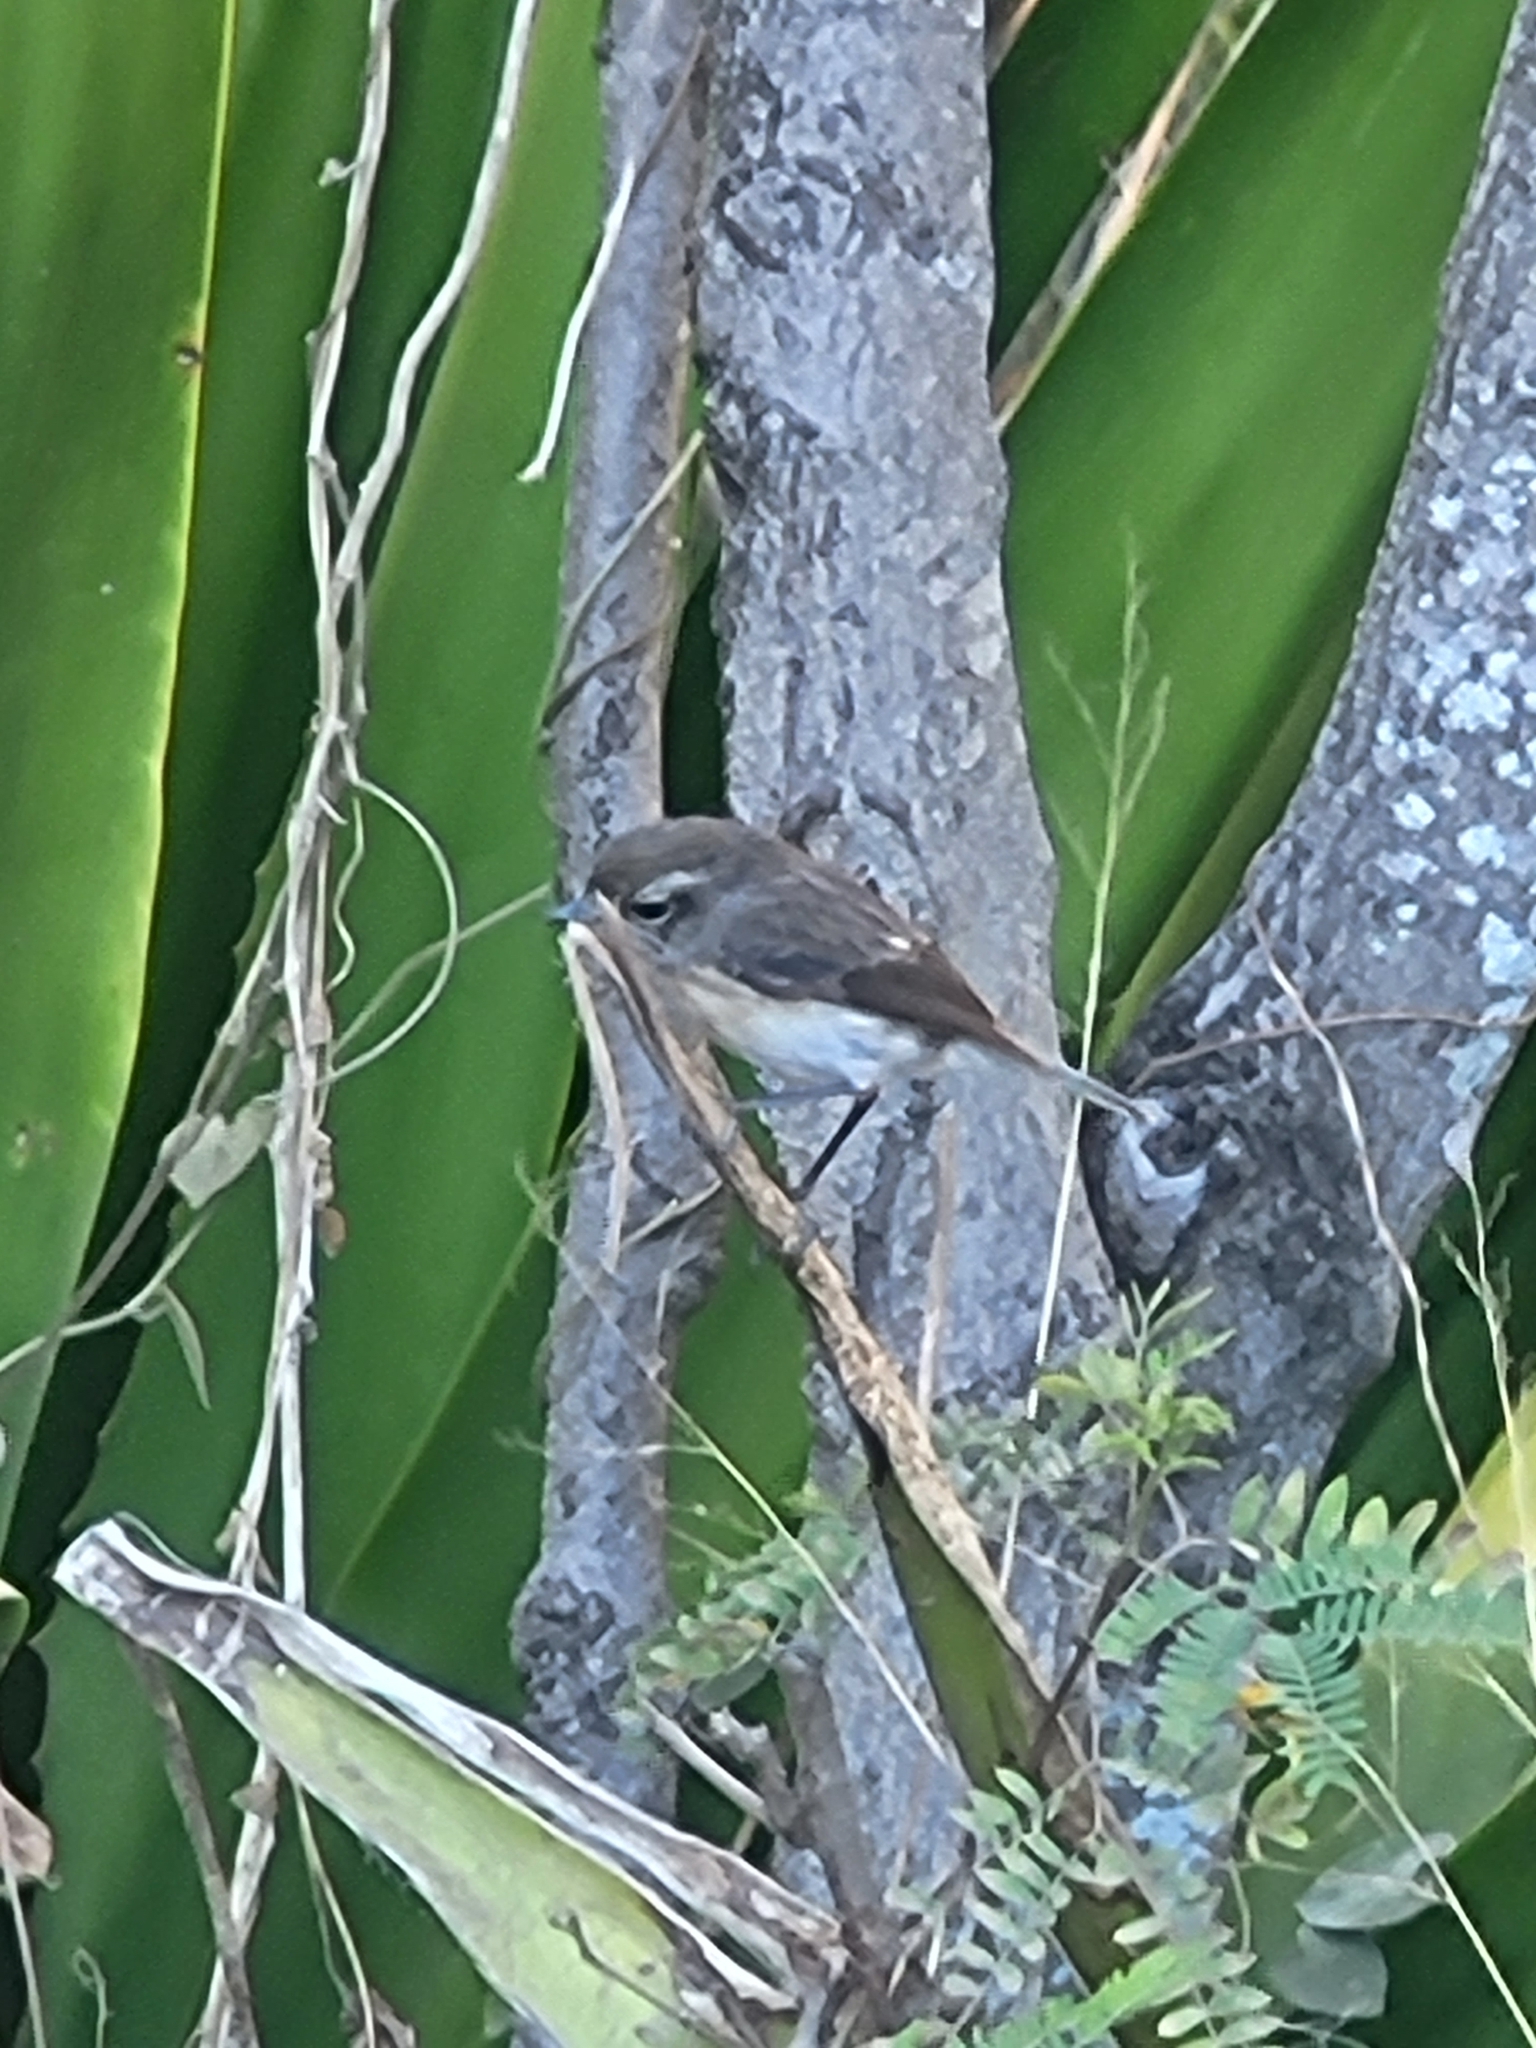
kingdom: Animalia
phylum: Chordata
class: Aves
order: Passeriformes
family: Muscicapidae
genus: Saxicola
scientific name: Saxicola tectes
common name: Reunion stonechat
